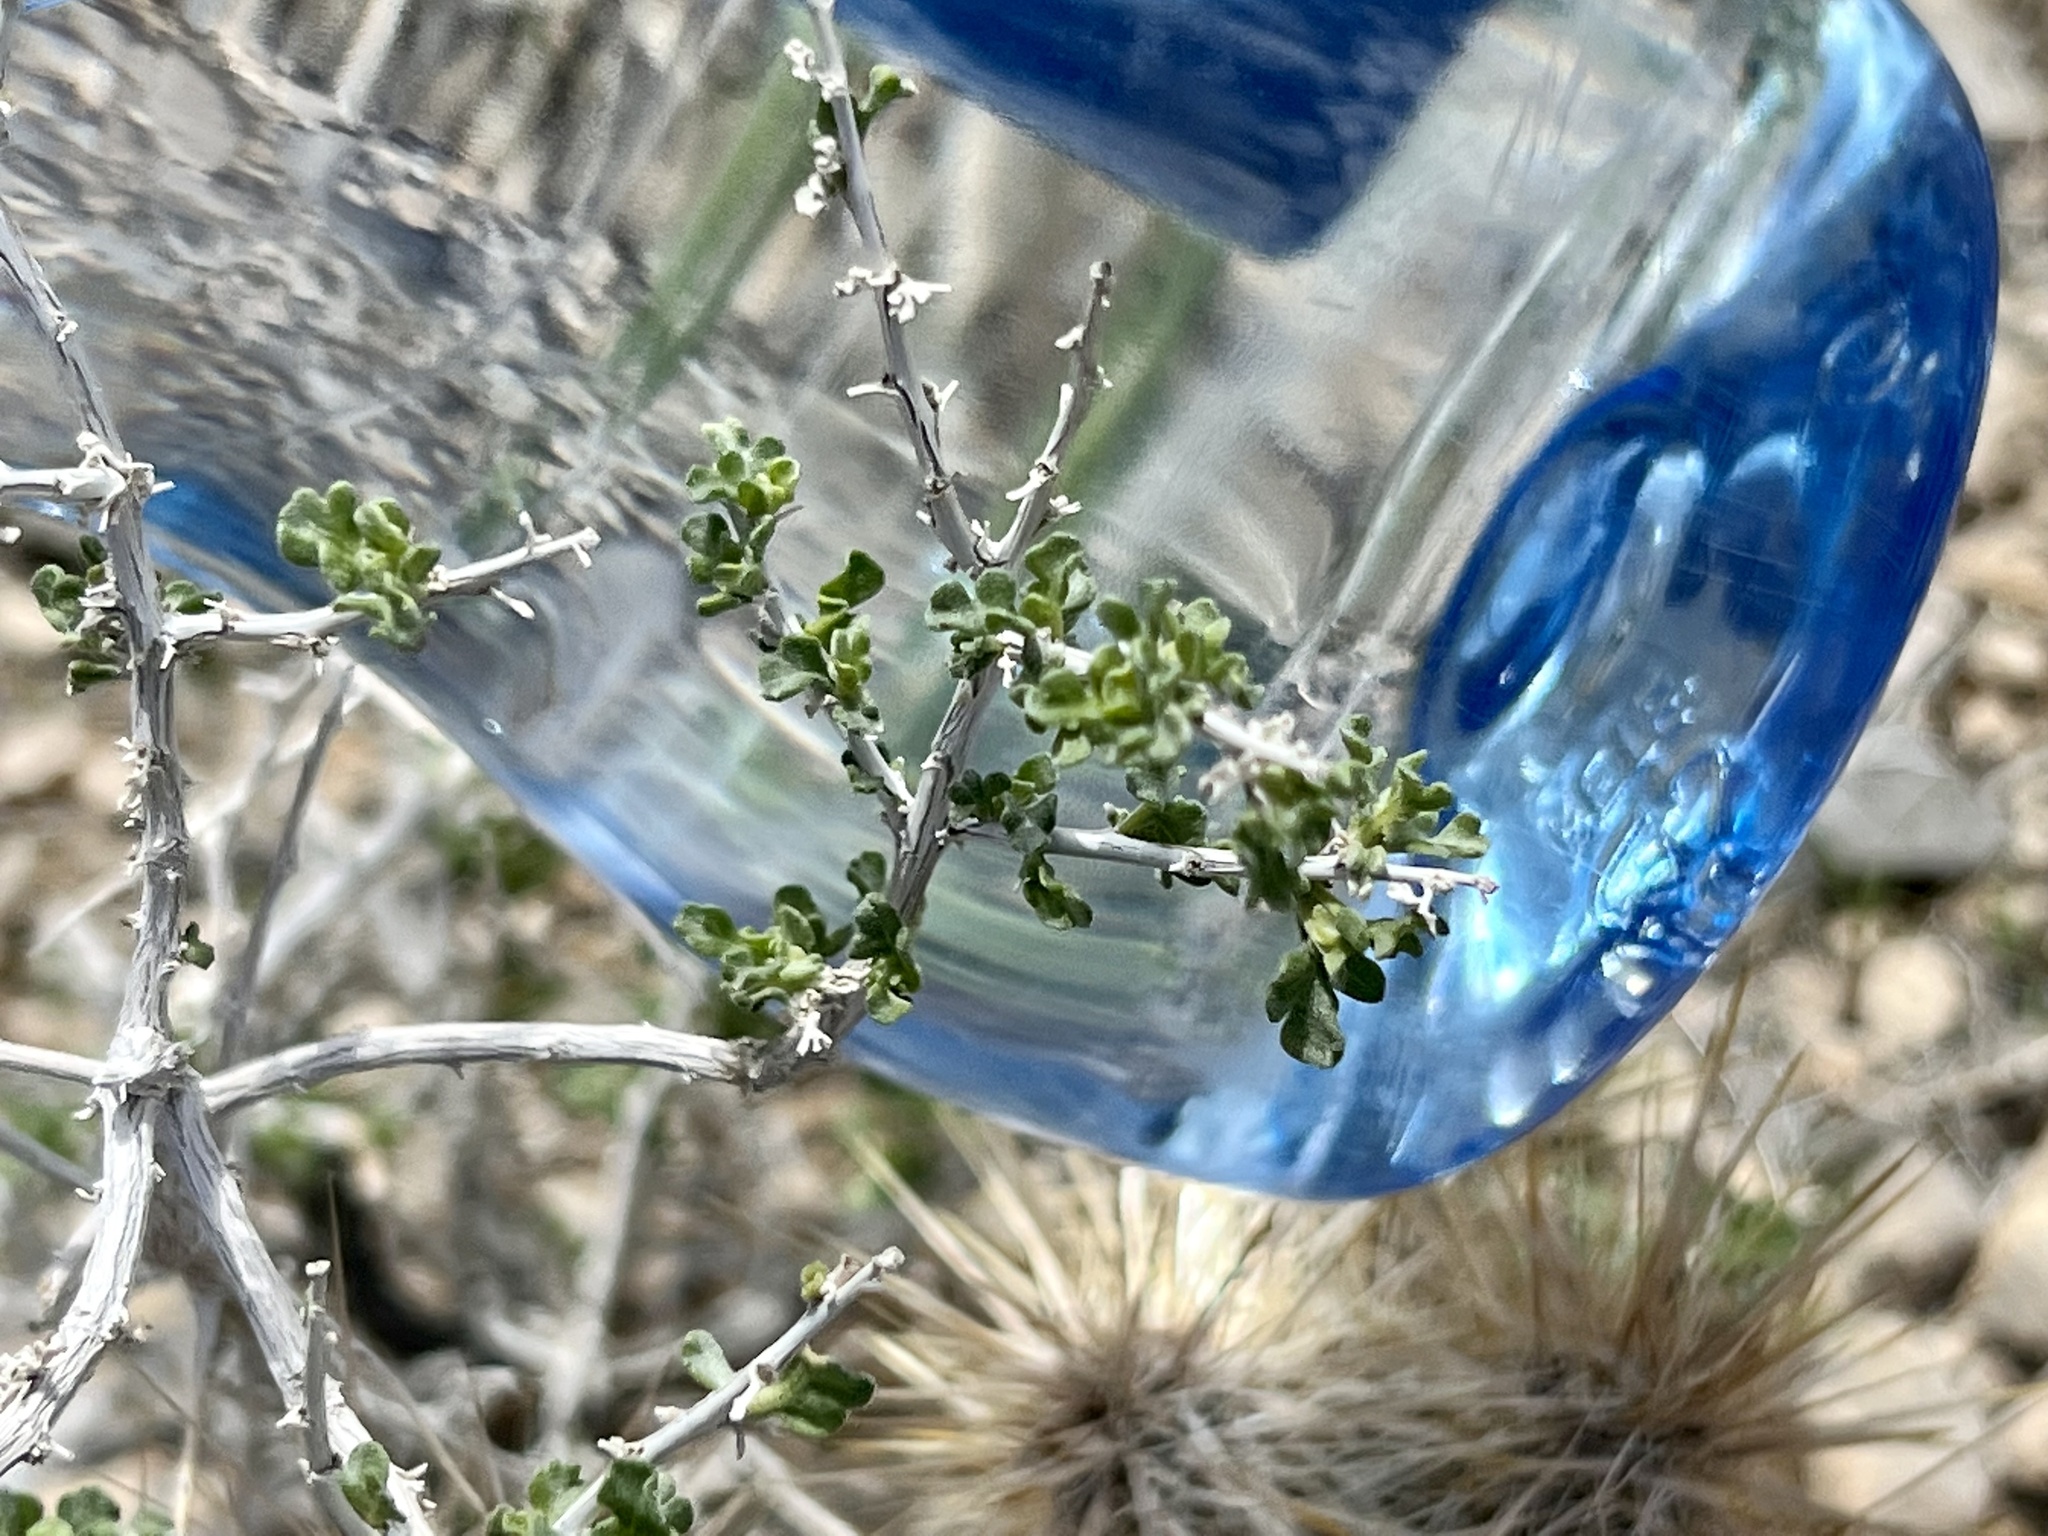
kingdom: Plantae
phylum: Tracheophyta
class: Magnoliopsida
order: Asterales
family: Asteraceae
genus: Ambrosia
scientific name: Ambrosia dumosa
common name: Bur-sage
